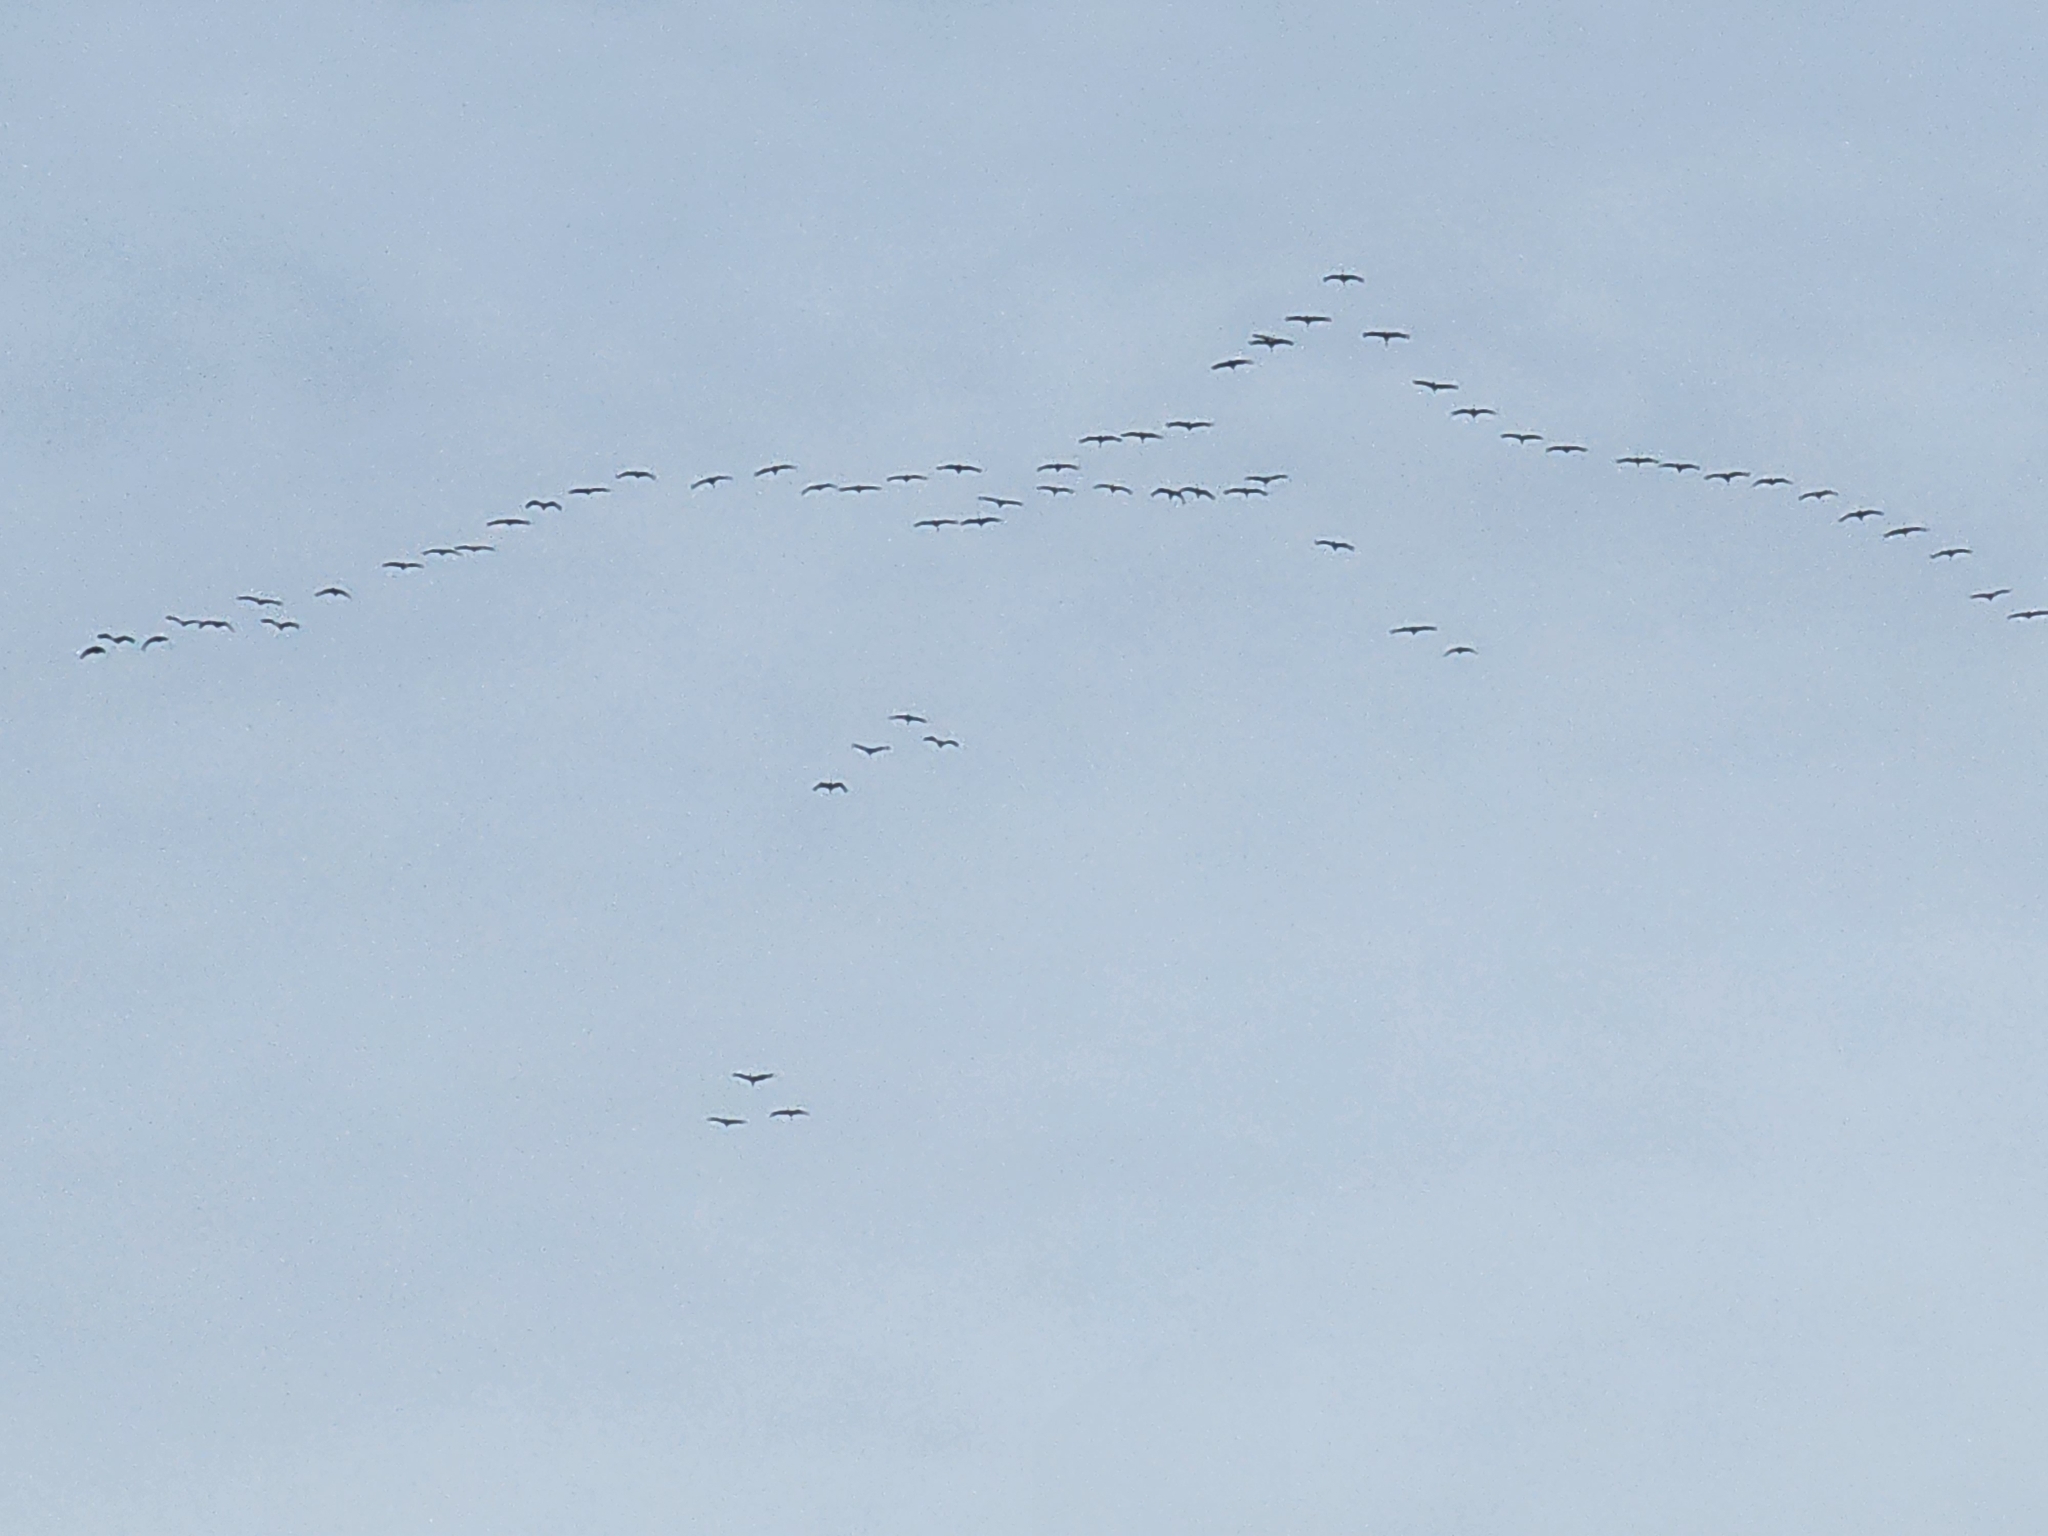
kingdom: Animalia
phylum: Chordata
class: Aves
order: Gruiformes
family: Gruidae
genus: Grus
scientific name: Grus canadensis
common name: Sandhill crane
